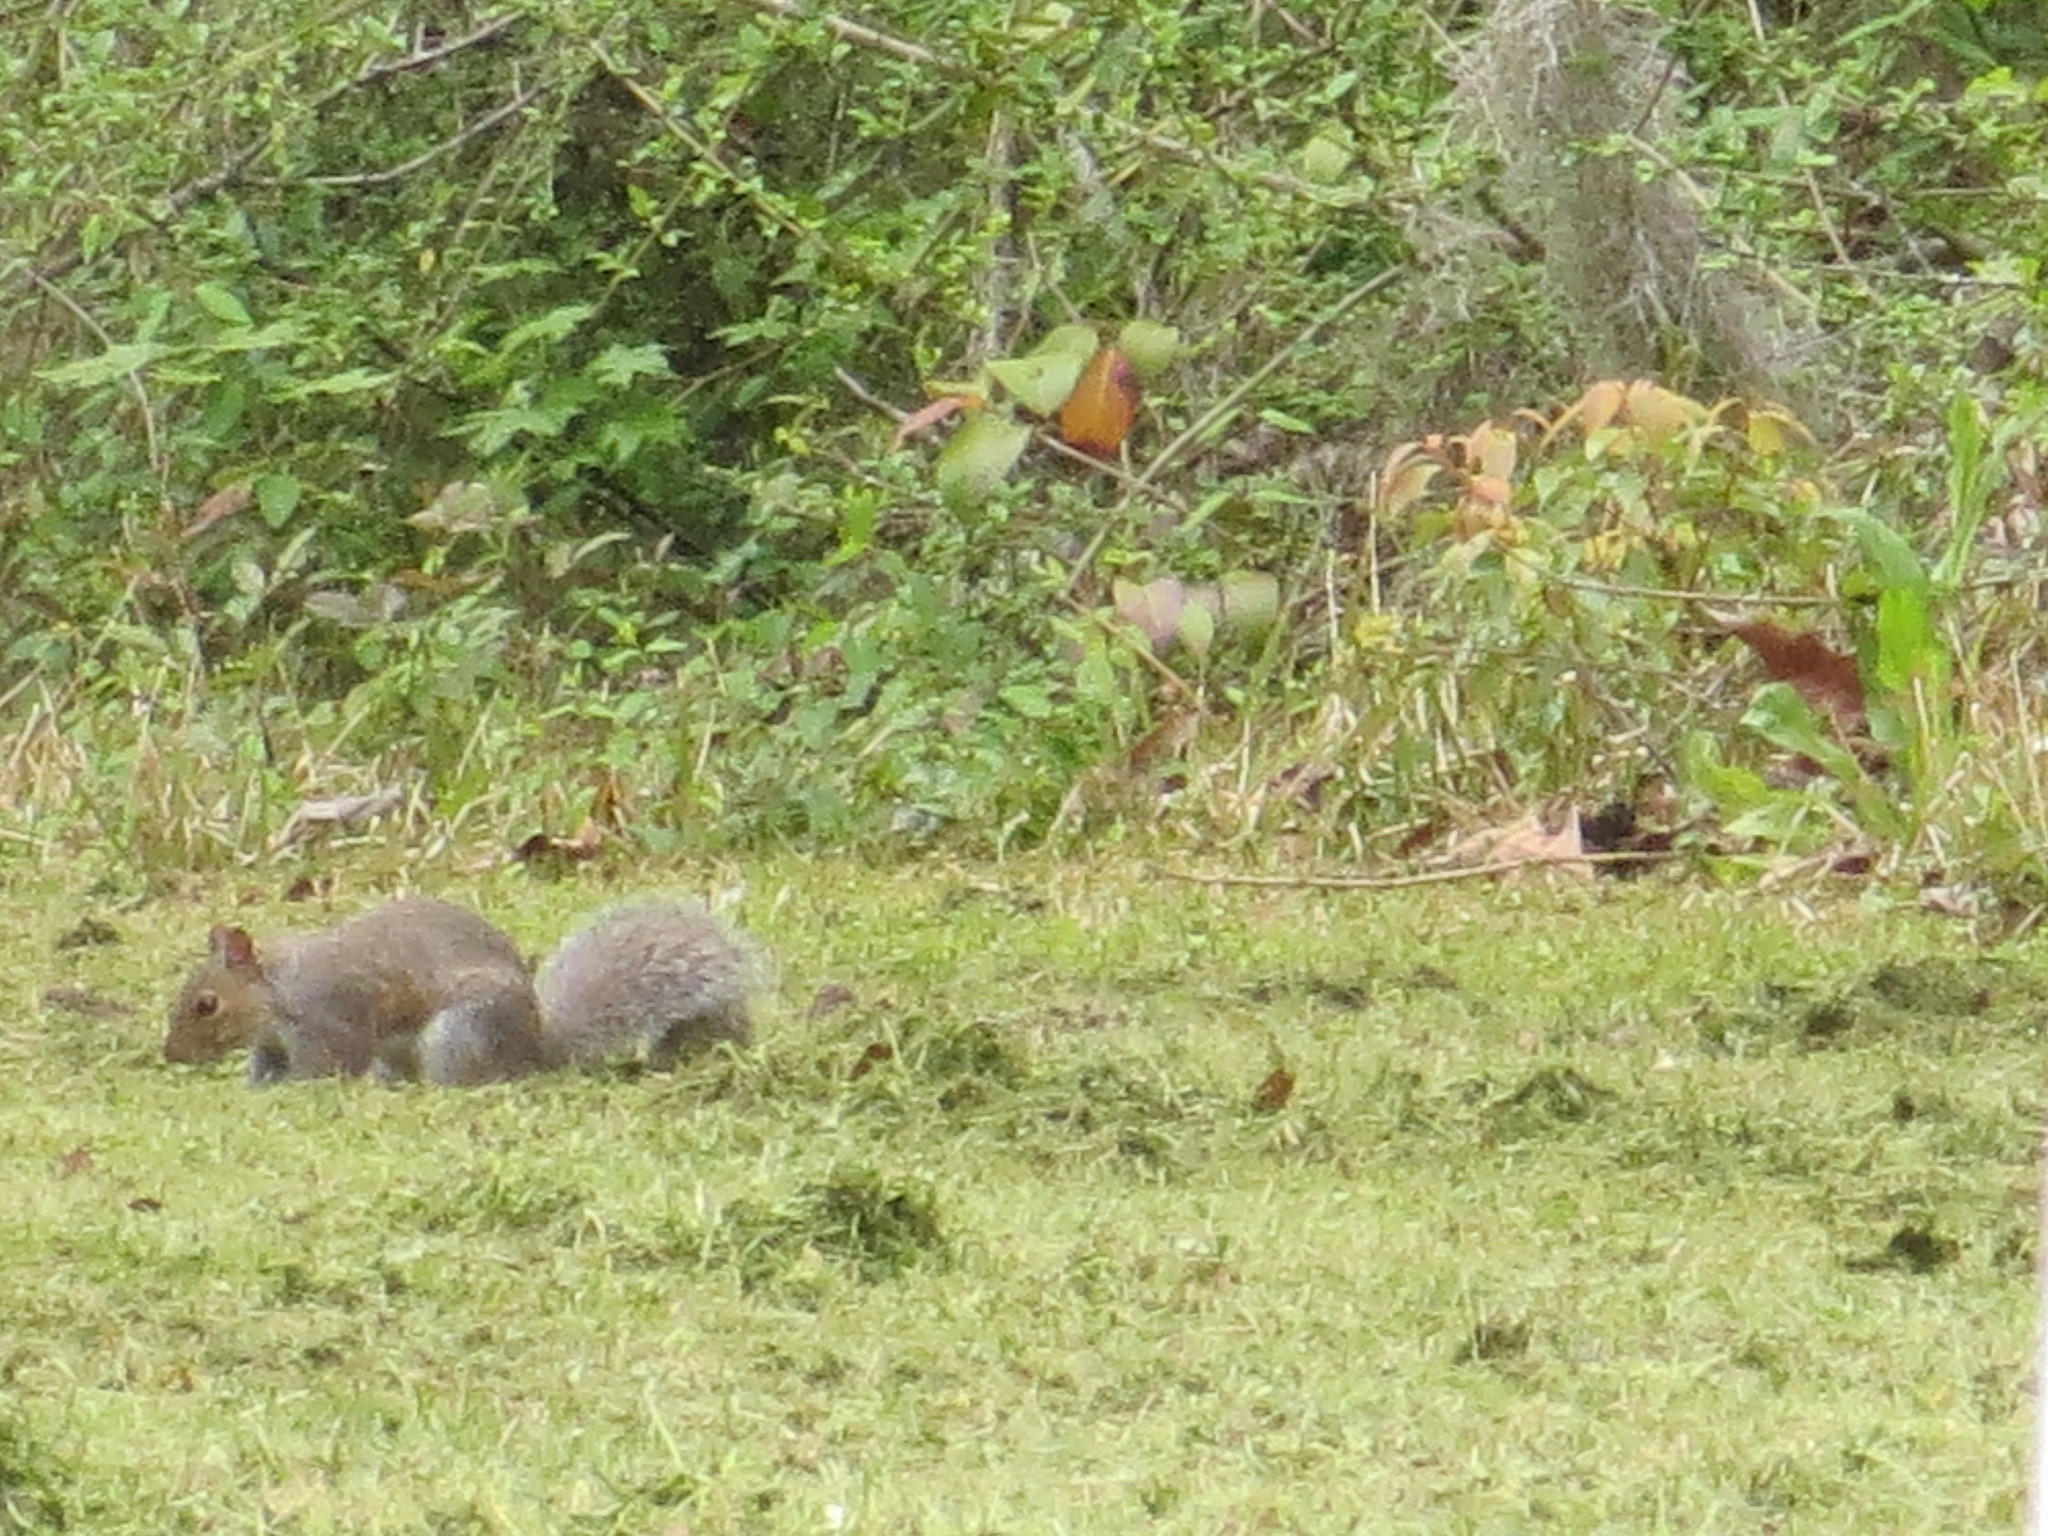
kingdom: Animalia
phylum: Chordata
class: Mammalia
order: Rodentia
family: Sciuridae
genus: Sciurus
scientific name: Sciurus carolinensis
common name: Eastern gray squirrel
